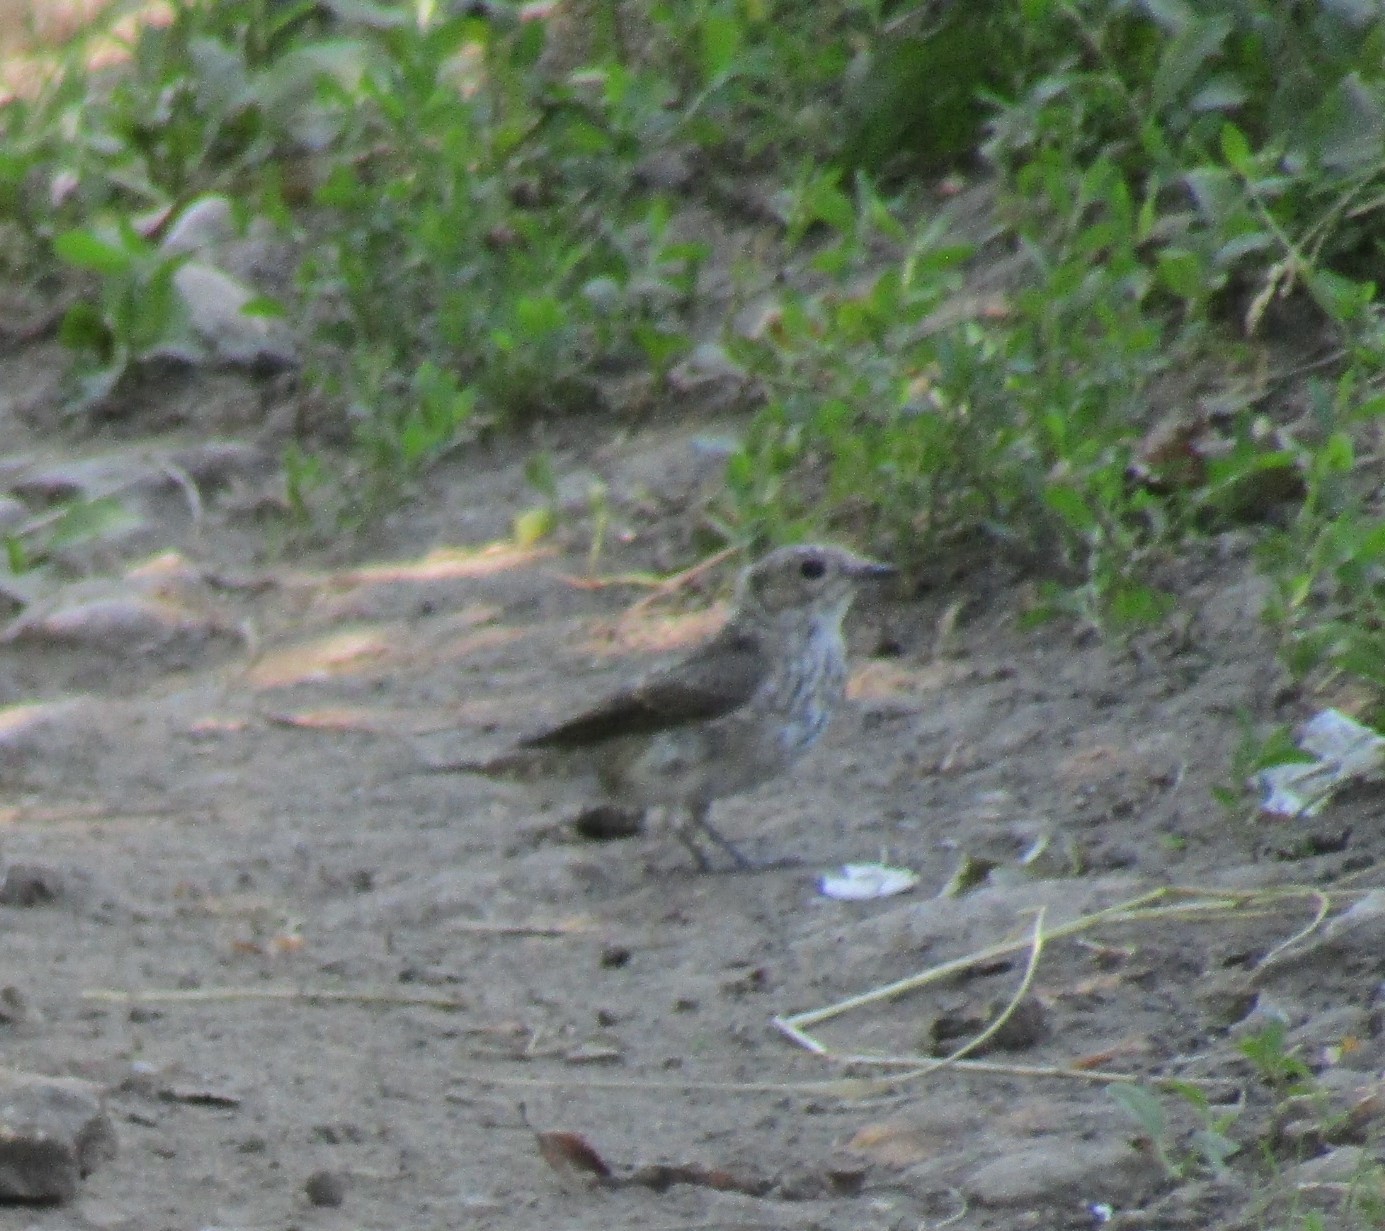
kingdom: Animalia
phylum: Chordata
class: Aves
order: Passeriformes
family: Muscicapidae
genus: Muscicapa
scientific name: Muscicapa striata
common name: Spotted flycatcher
